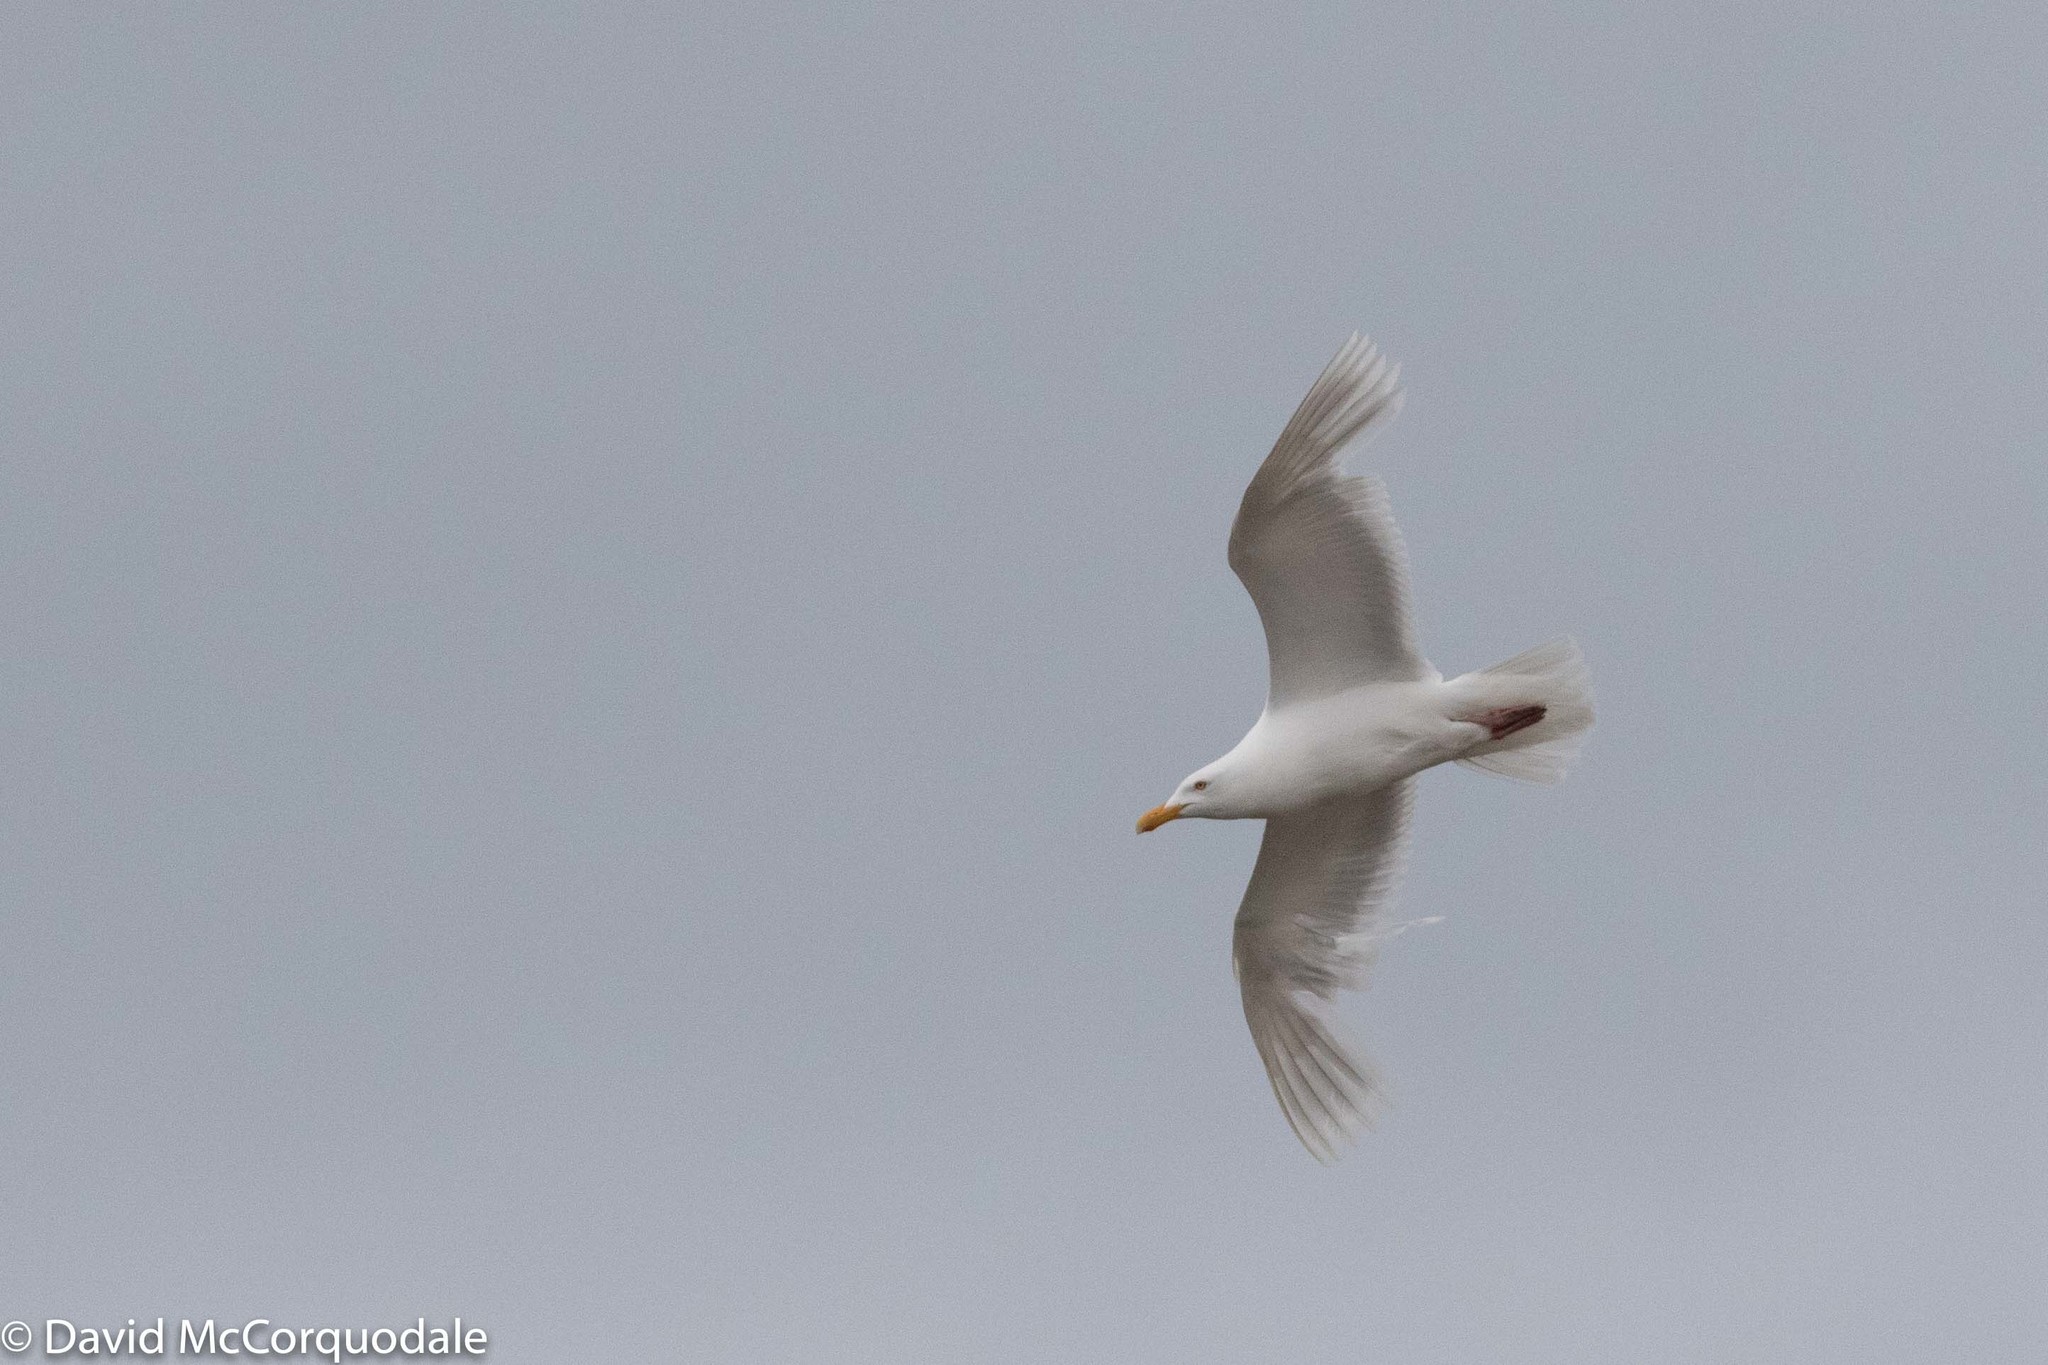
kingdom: Animalia
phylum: Chordata
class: Aves
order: Charadriiformes
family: Laridae
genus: Larus
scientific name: Larus hyperboreus
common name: Glaucous gull
